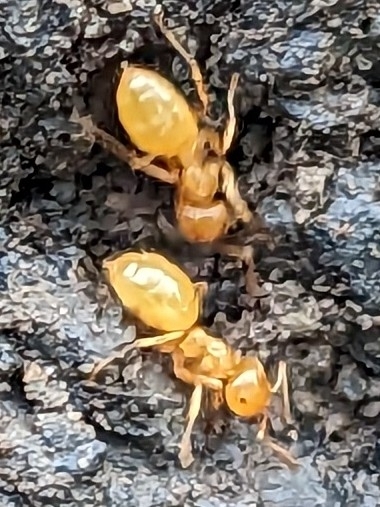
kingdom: Animalia
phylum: Arthropoda
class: Insecta
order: Hymenoptera
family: Formicidae
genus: Acanthomyops
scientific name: Acanthomyops
